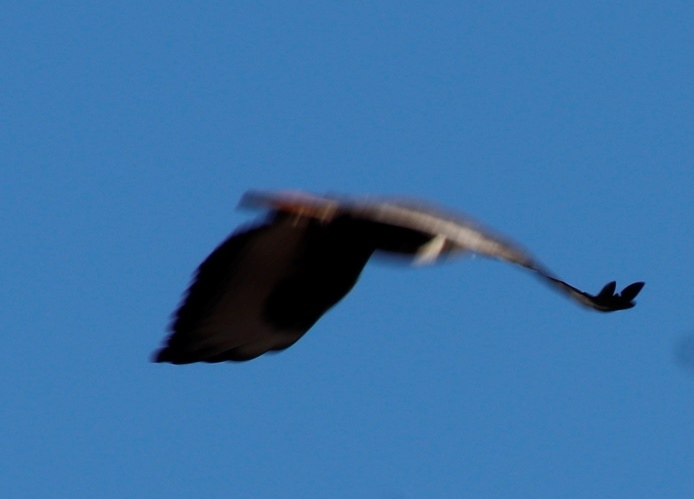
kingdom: Animalia
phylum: Chordata
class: Aves
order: Accipitriformes
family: Accipitridae
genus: Buteo
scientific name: Buteo rufofuscus
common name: Jackal buzzard
